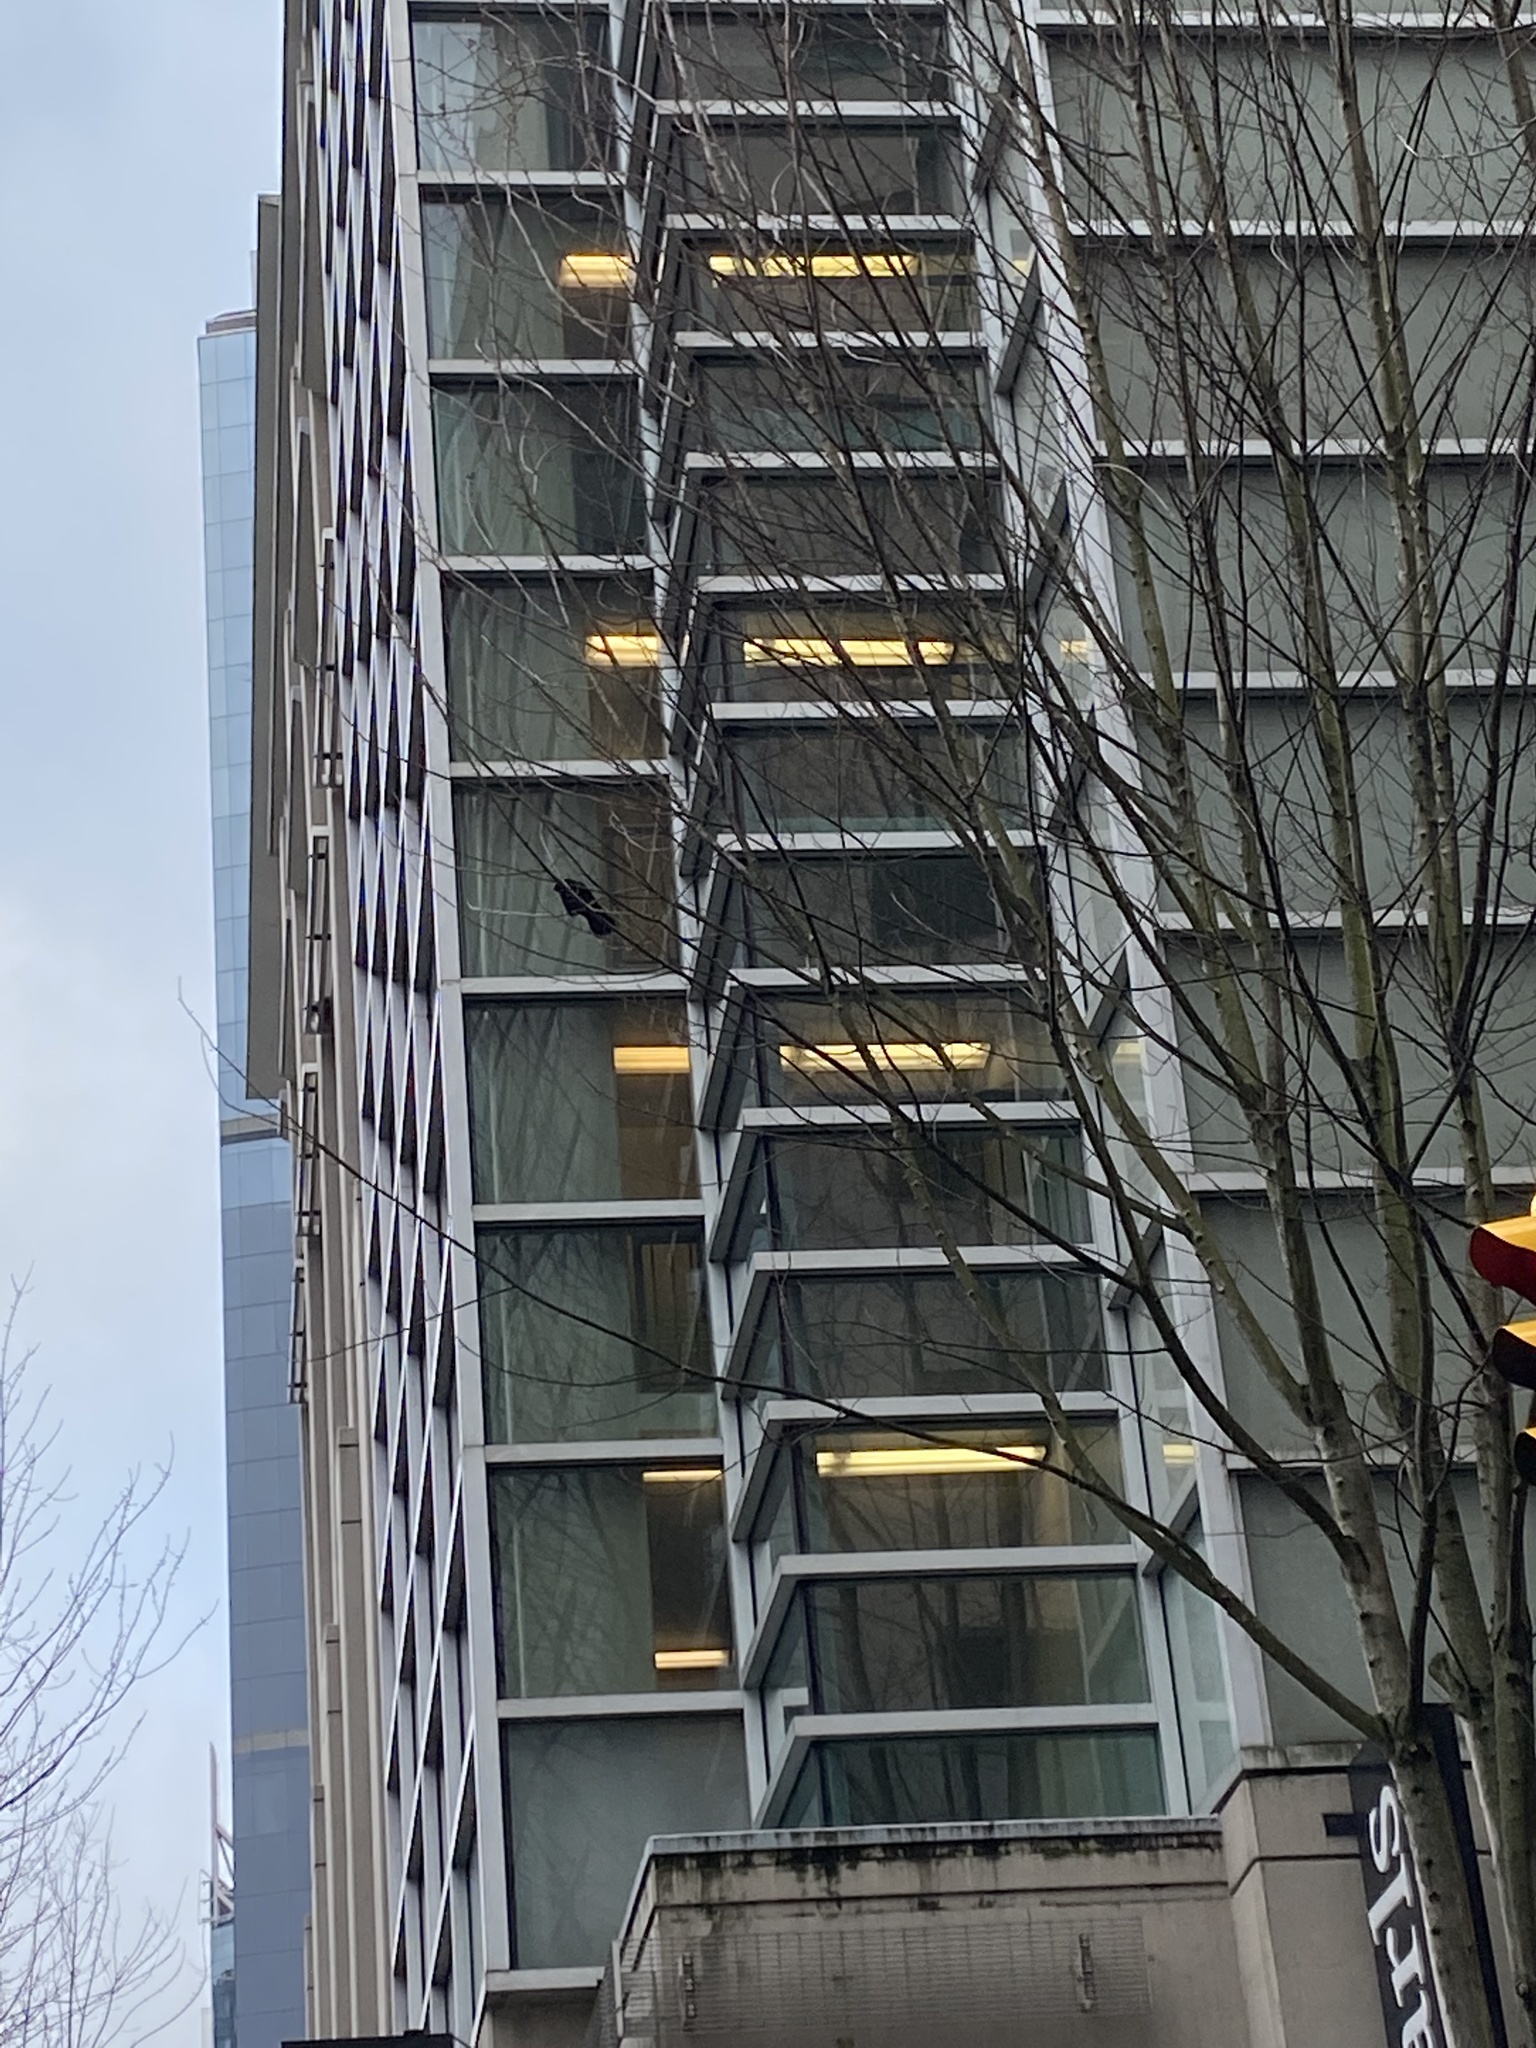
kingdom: Animalia
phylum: Chordata
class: Aves
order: Passeriformes
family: Corvidae
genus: Corvus
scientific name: Corvus brachyrhynchos
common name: American crow
